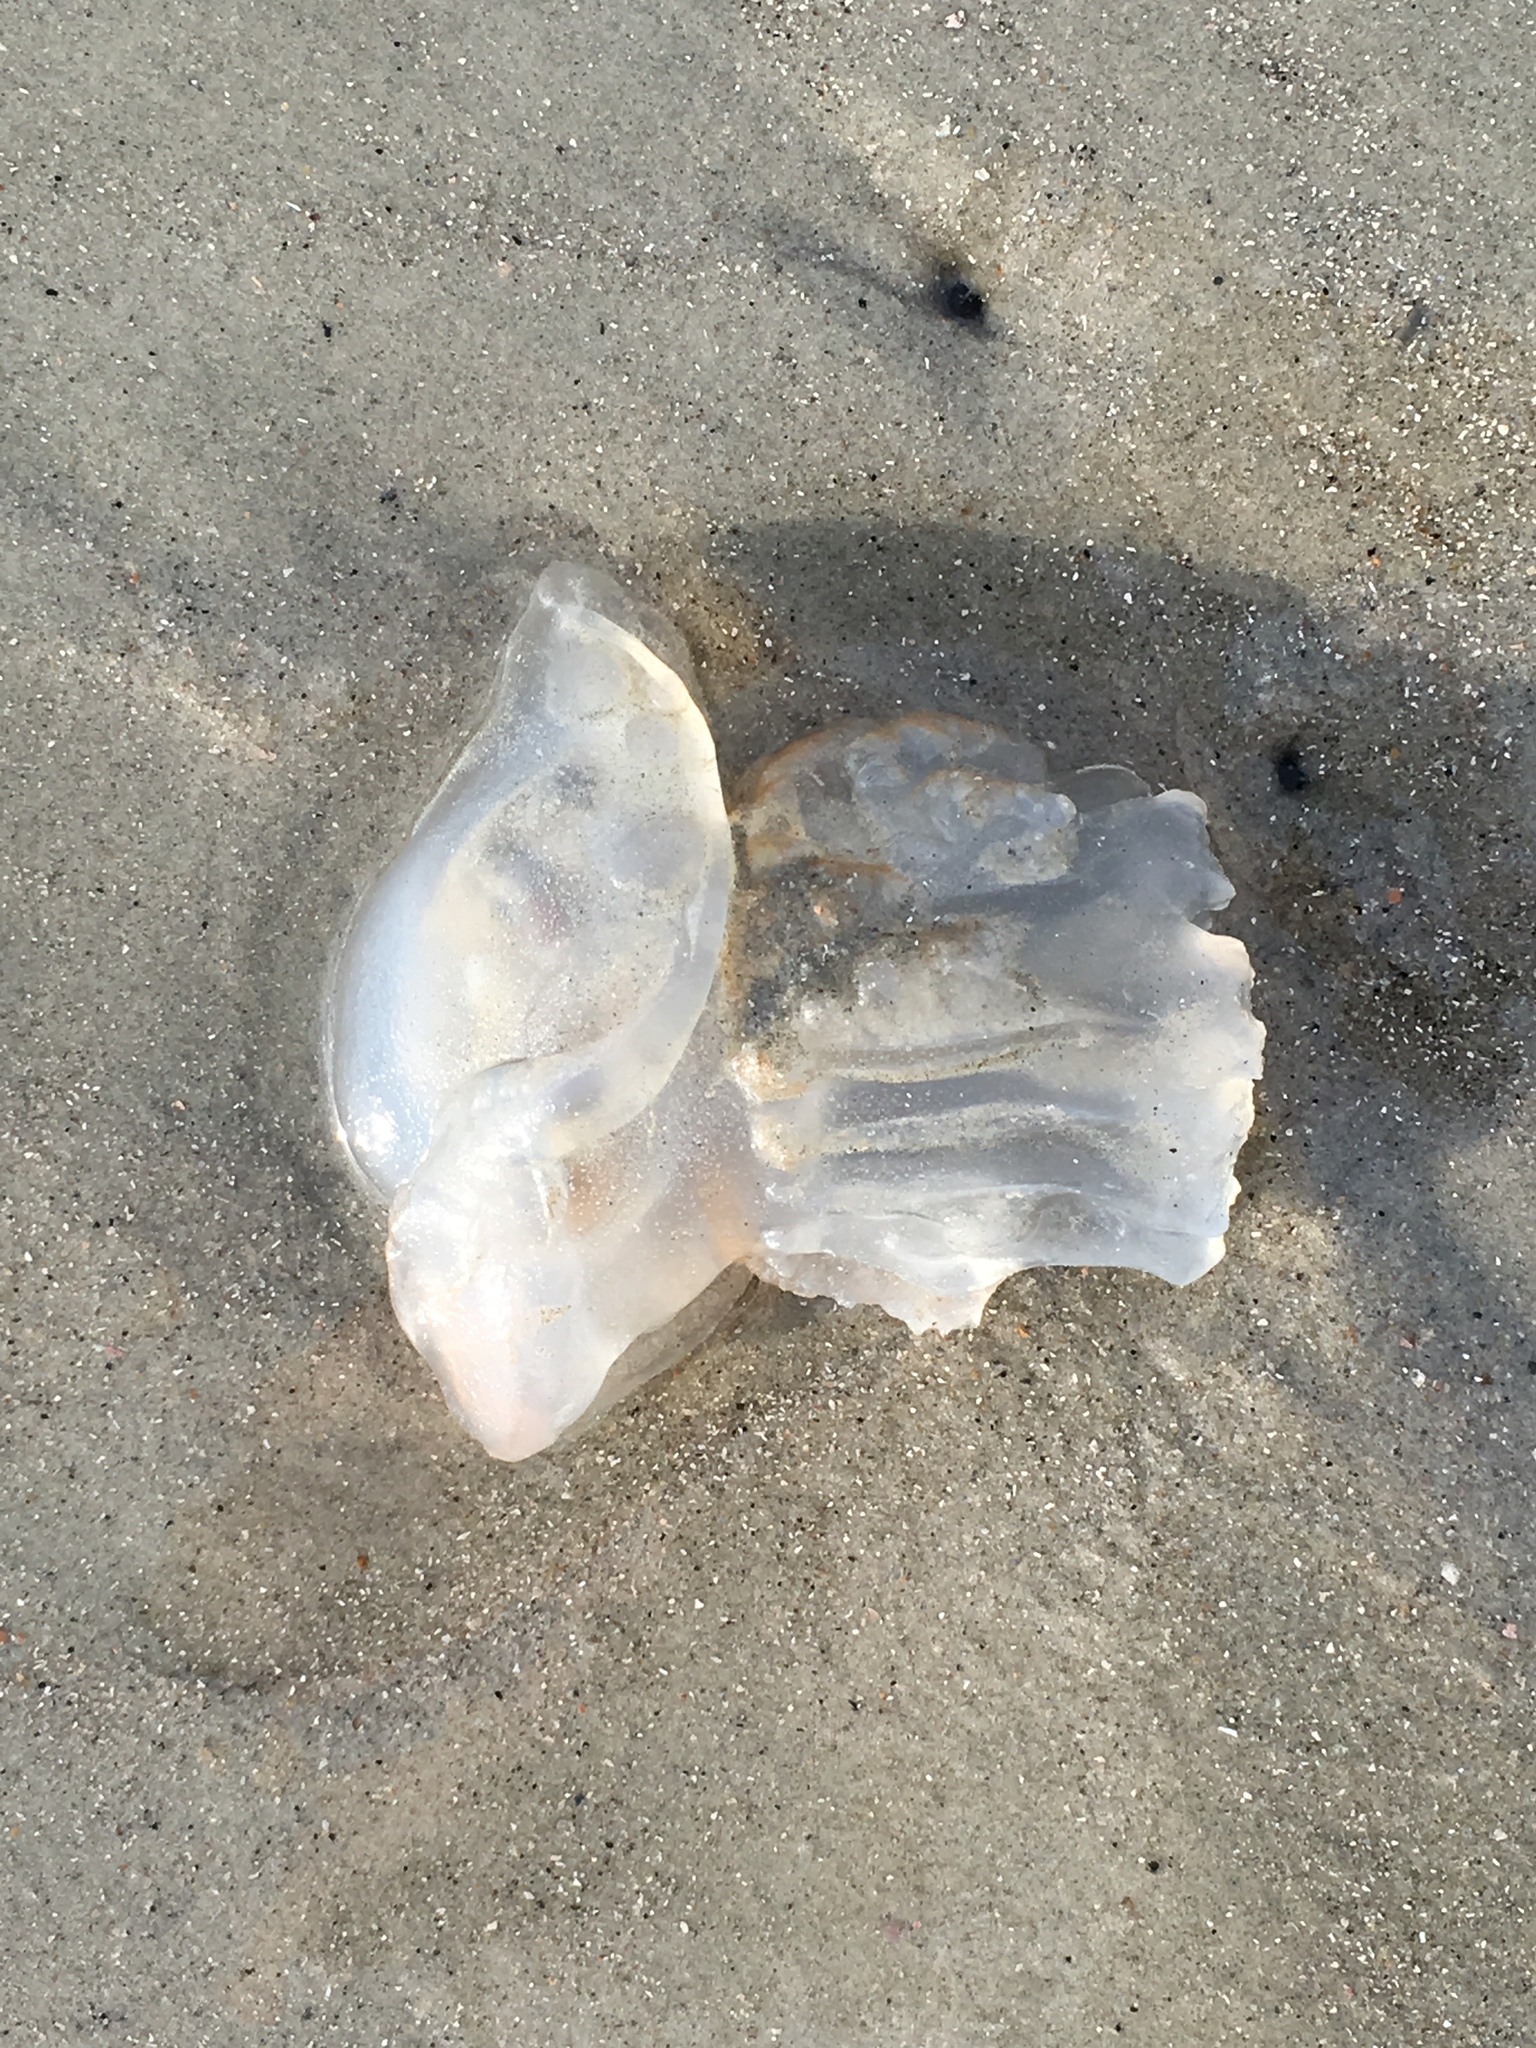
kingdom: Animalia
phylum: Cnidaria
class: Scyphozoa
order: Rhizostomeae
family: Stomolophidae
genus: Stomolophus
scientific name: Stomolophus meleagris
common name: Cabbagehead
